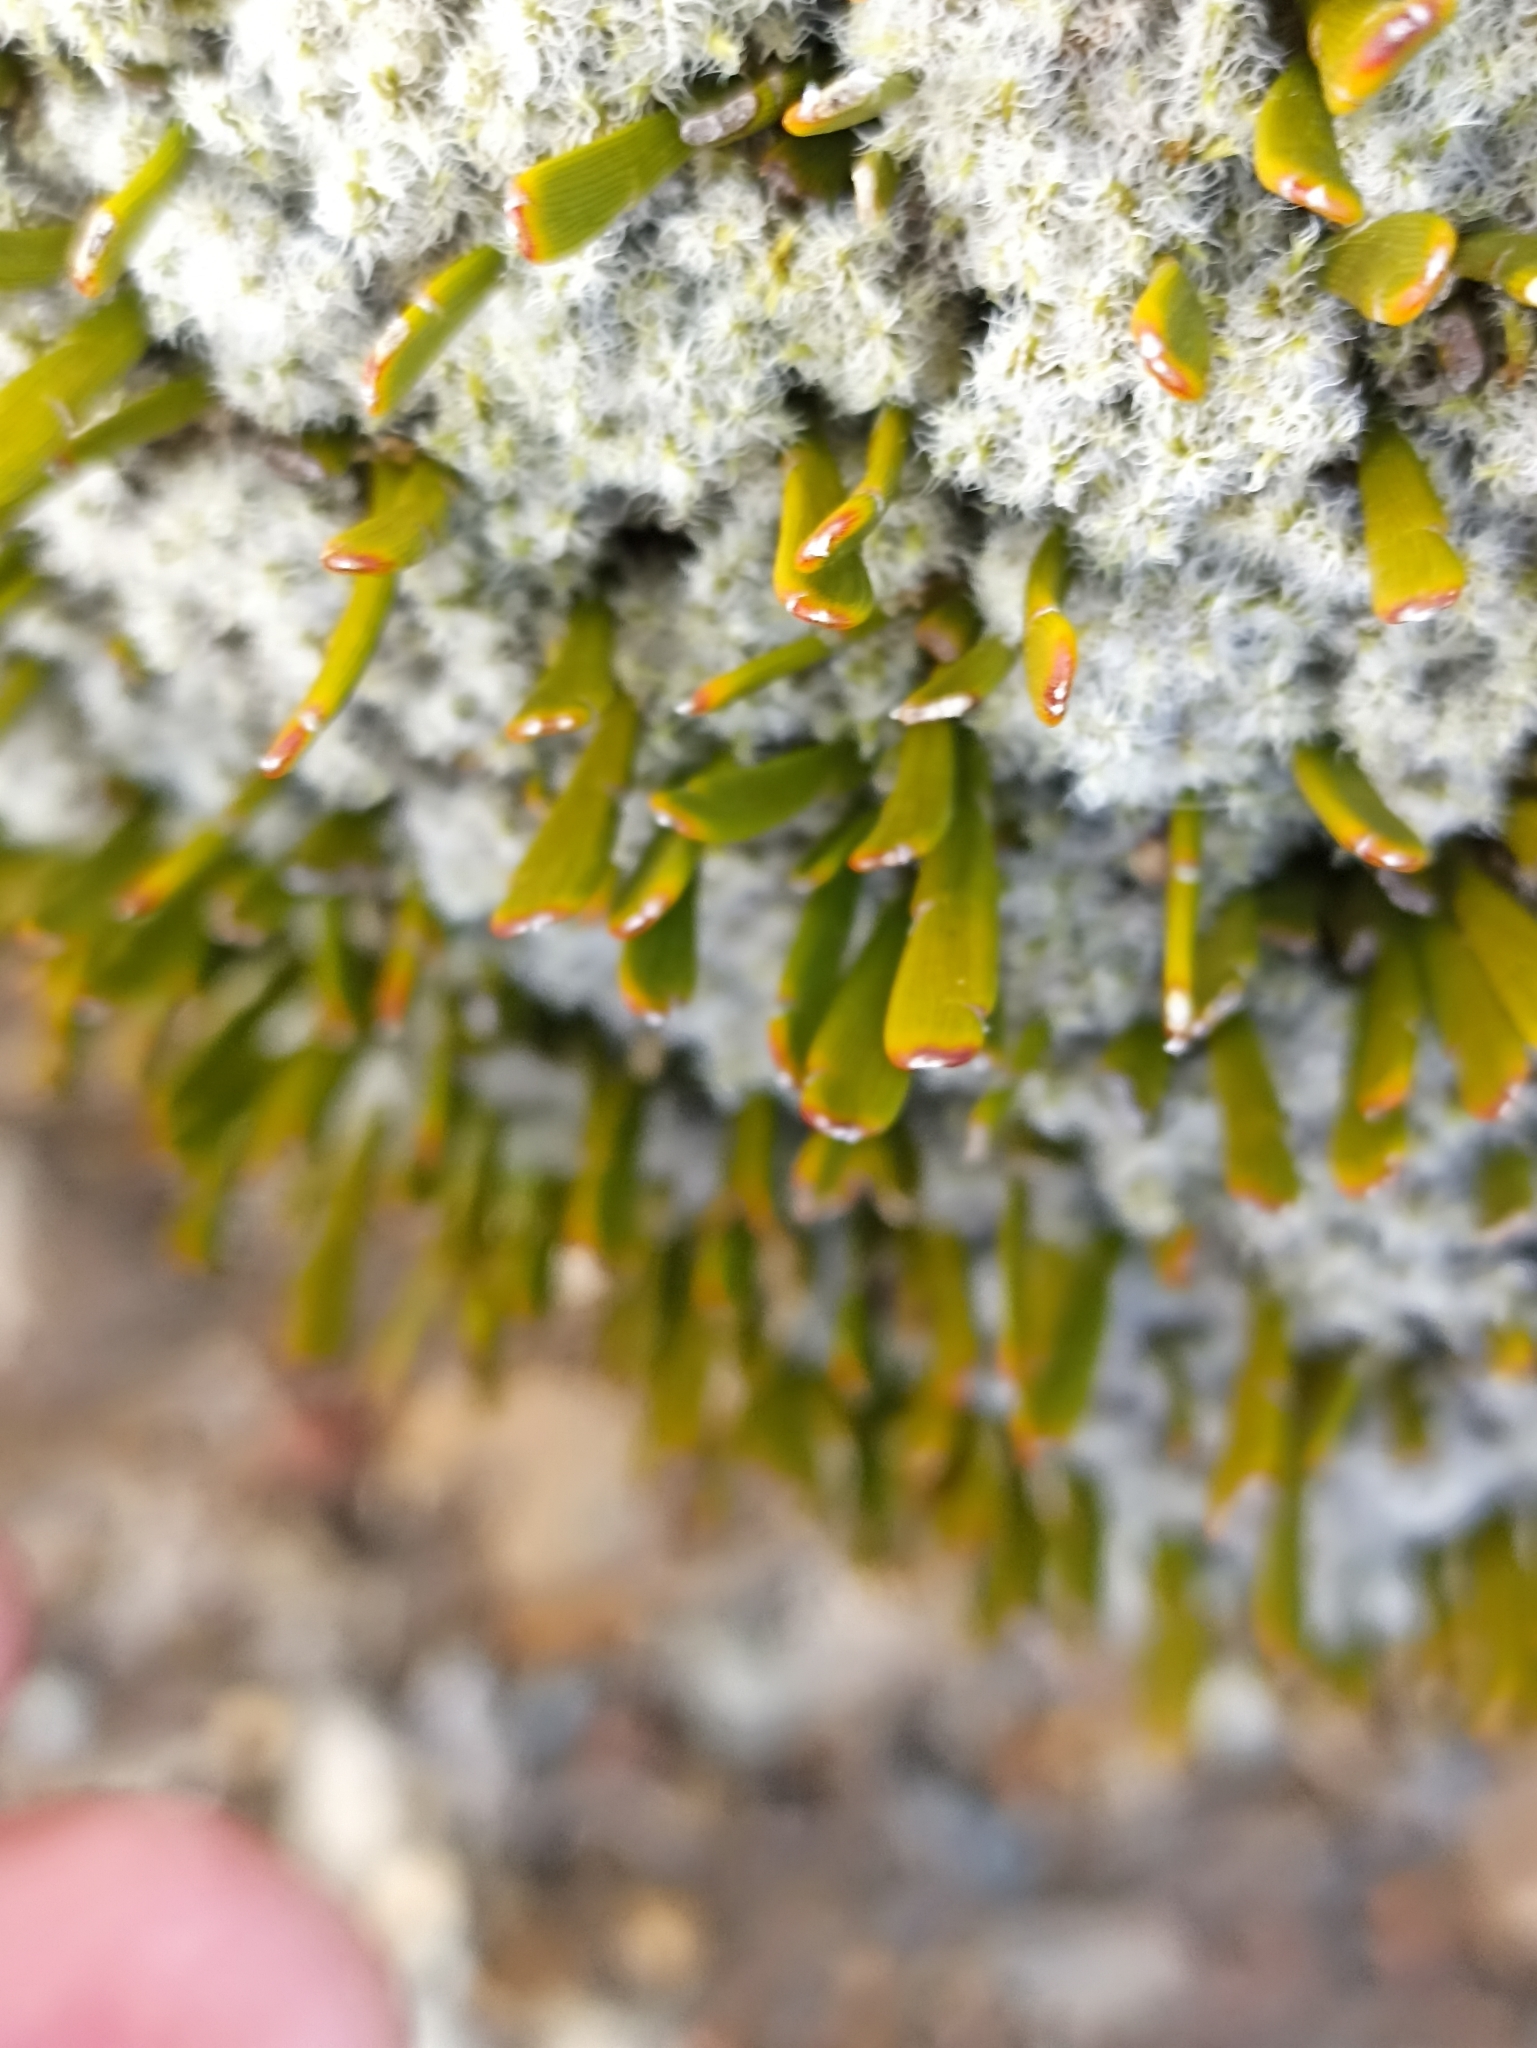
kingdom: Plantae
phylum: Tracheophyta
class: Magnoliopsida
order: Fabales
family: Fabaceae
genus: Carmichaelia
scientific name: Carmichaelia nana
